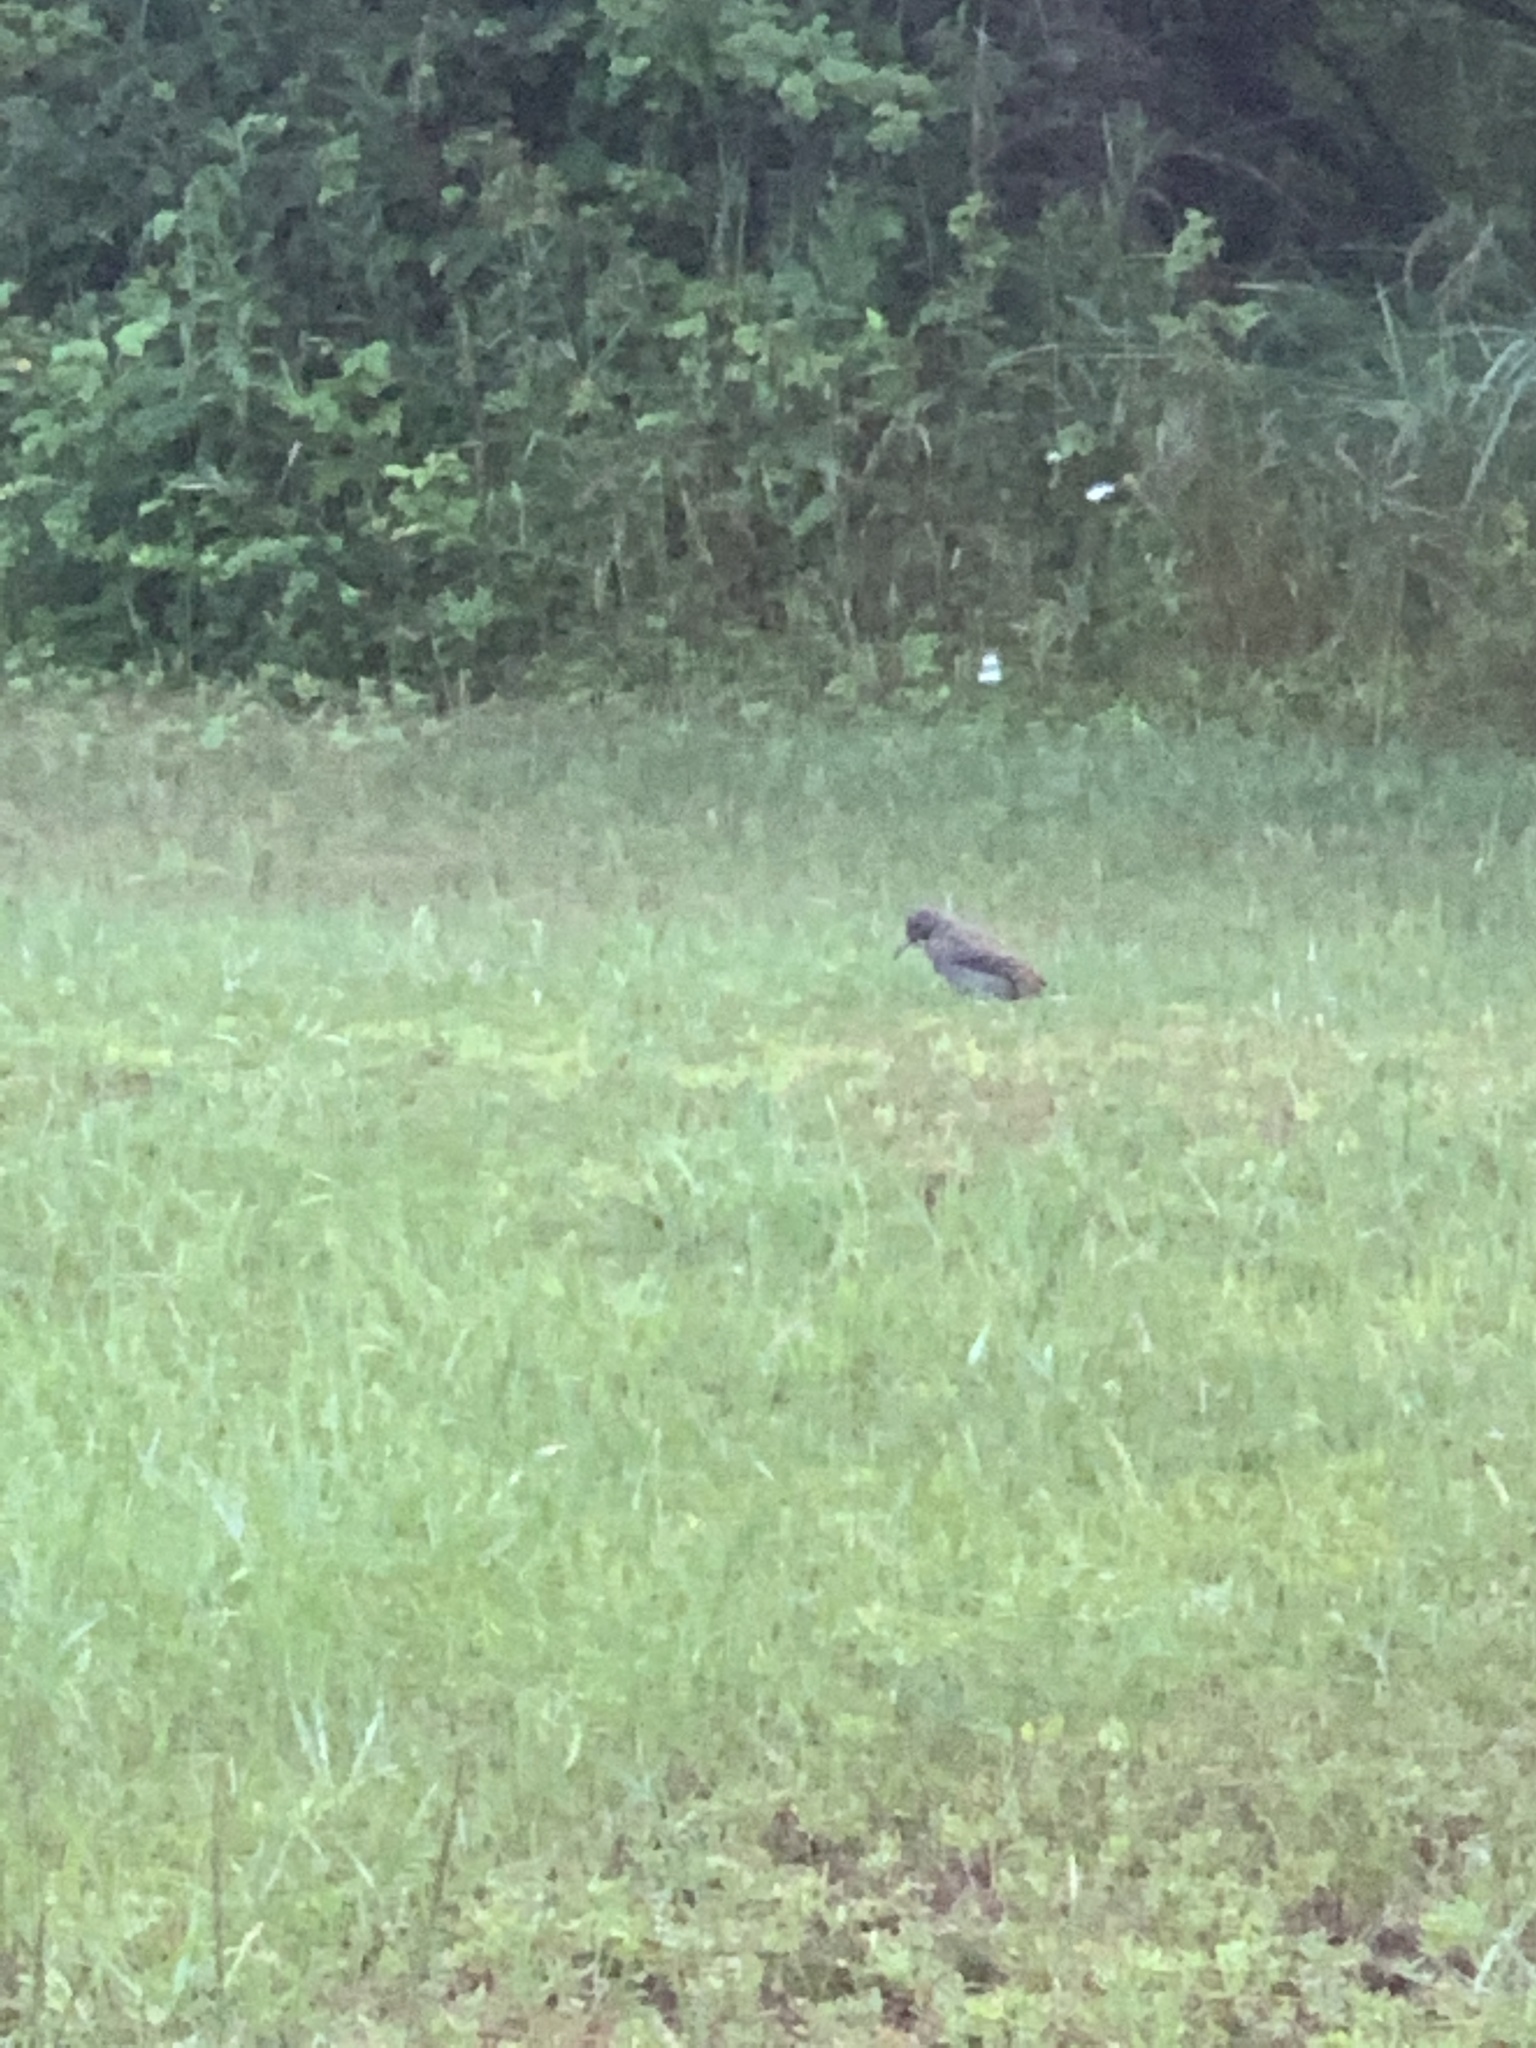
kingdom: Animalia
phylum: Chordata
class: Aves
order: Piciformes
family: Picidae
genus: Colaptes
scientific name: Colaptes auratus
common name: Northern flicker
